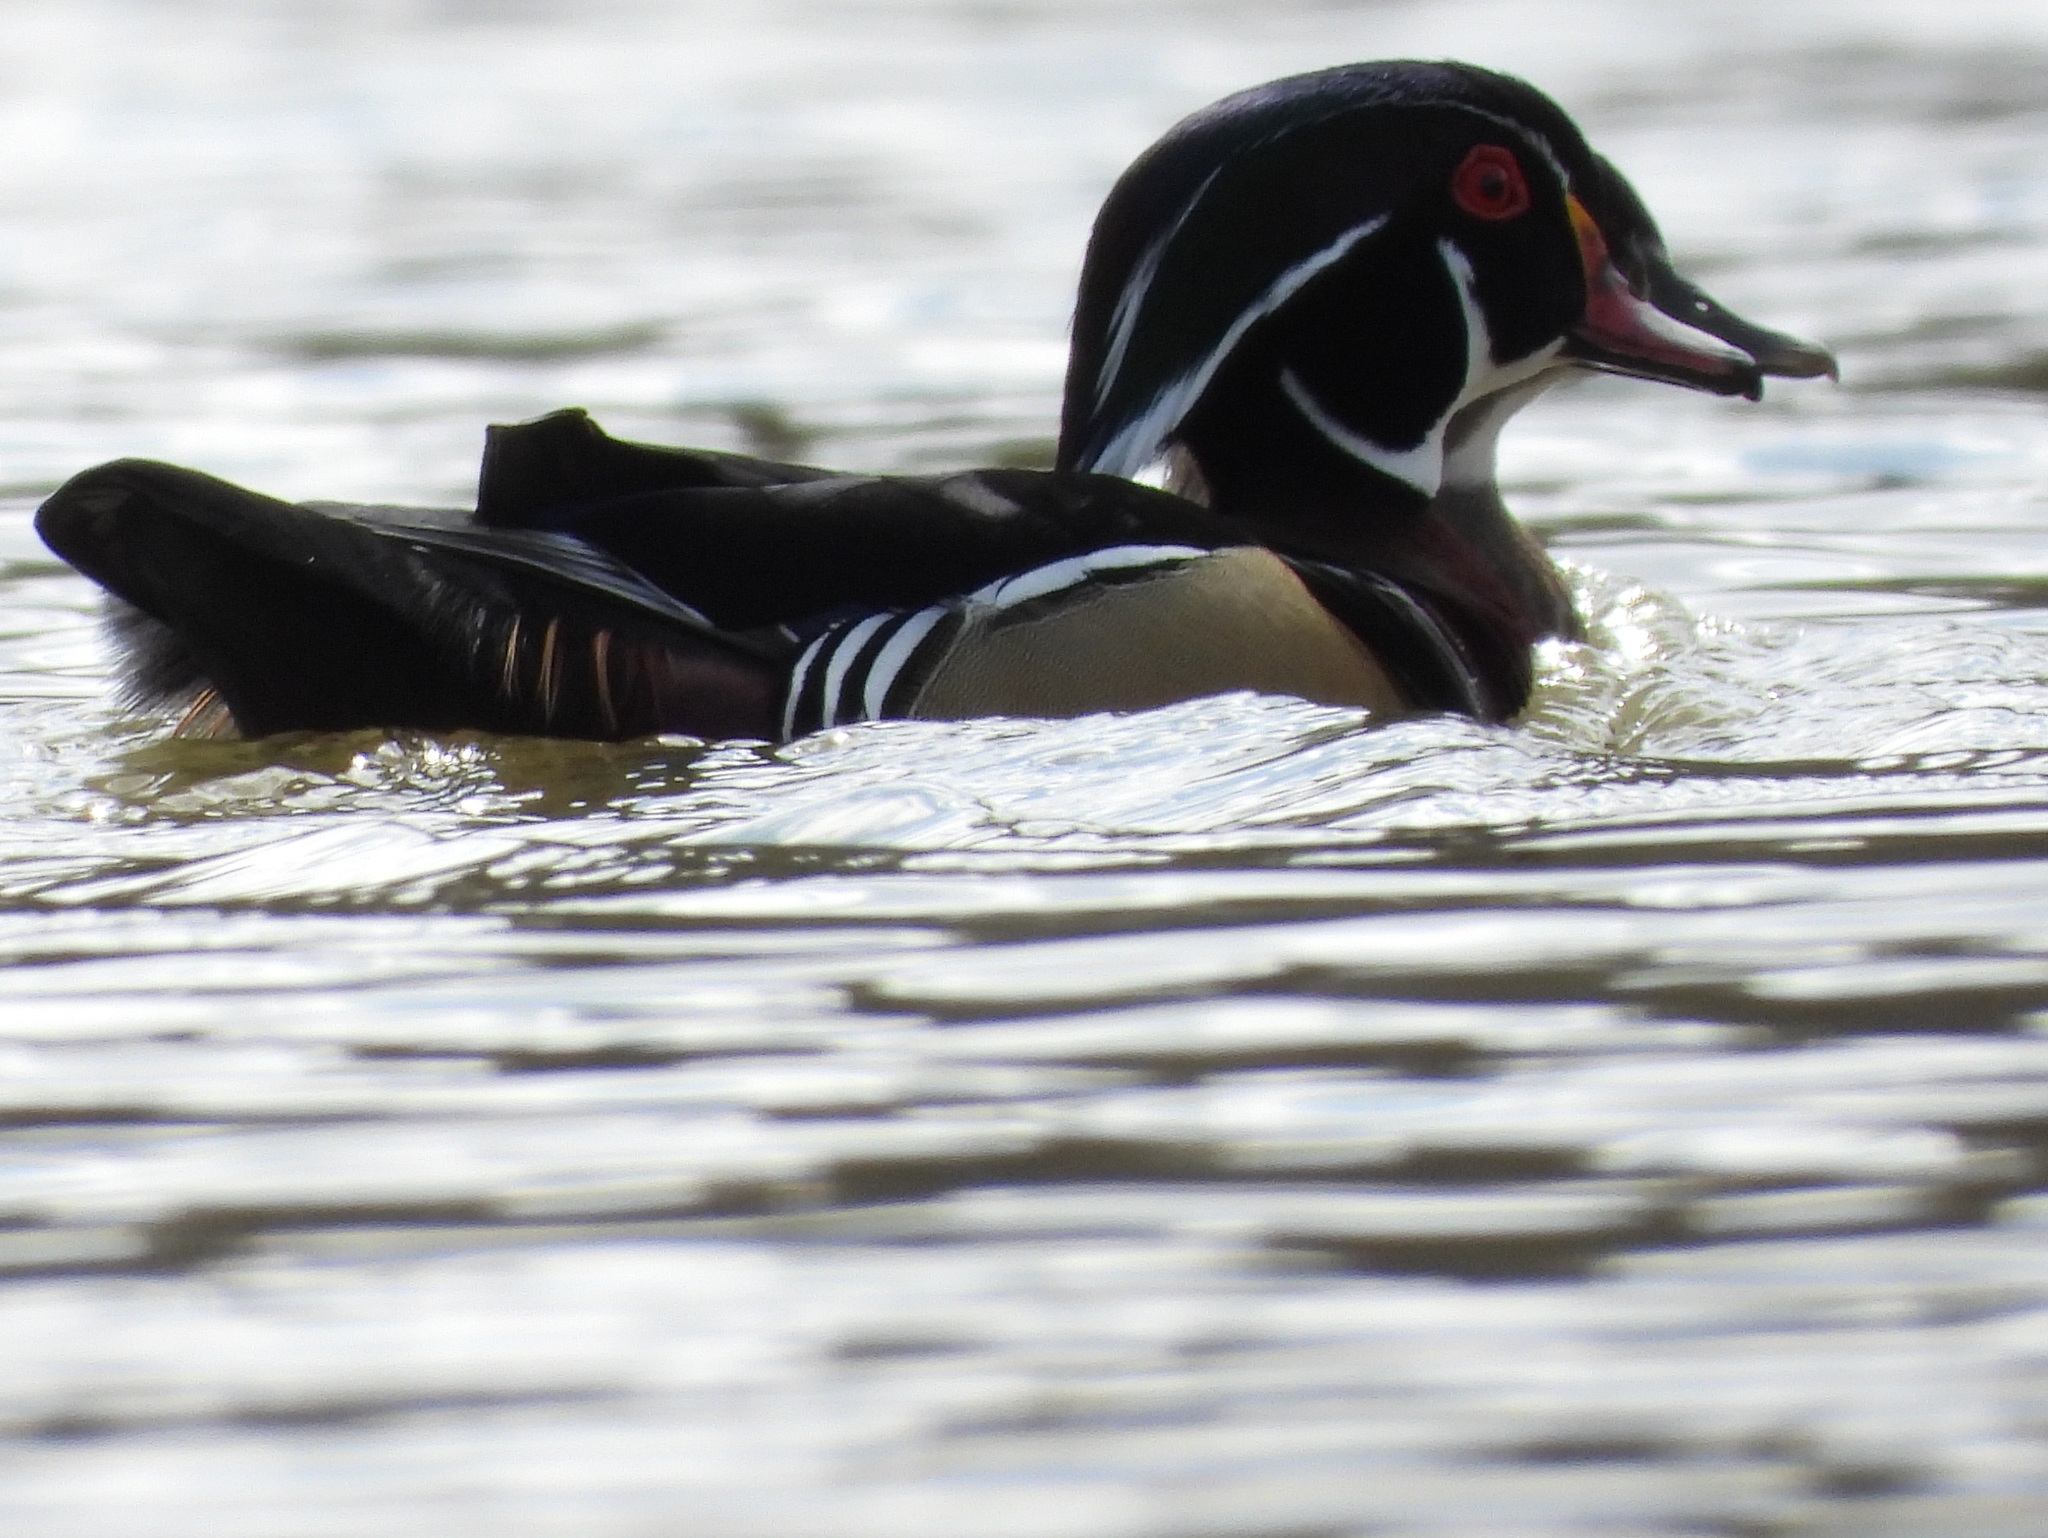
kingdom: Animalia
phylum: Chordata
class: Aves
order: Anseriformes
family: Anatidae
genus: Aix
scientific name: Aix sponsa
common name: Wood duck
